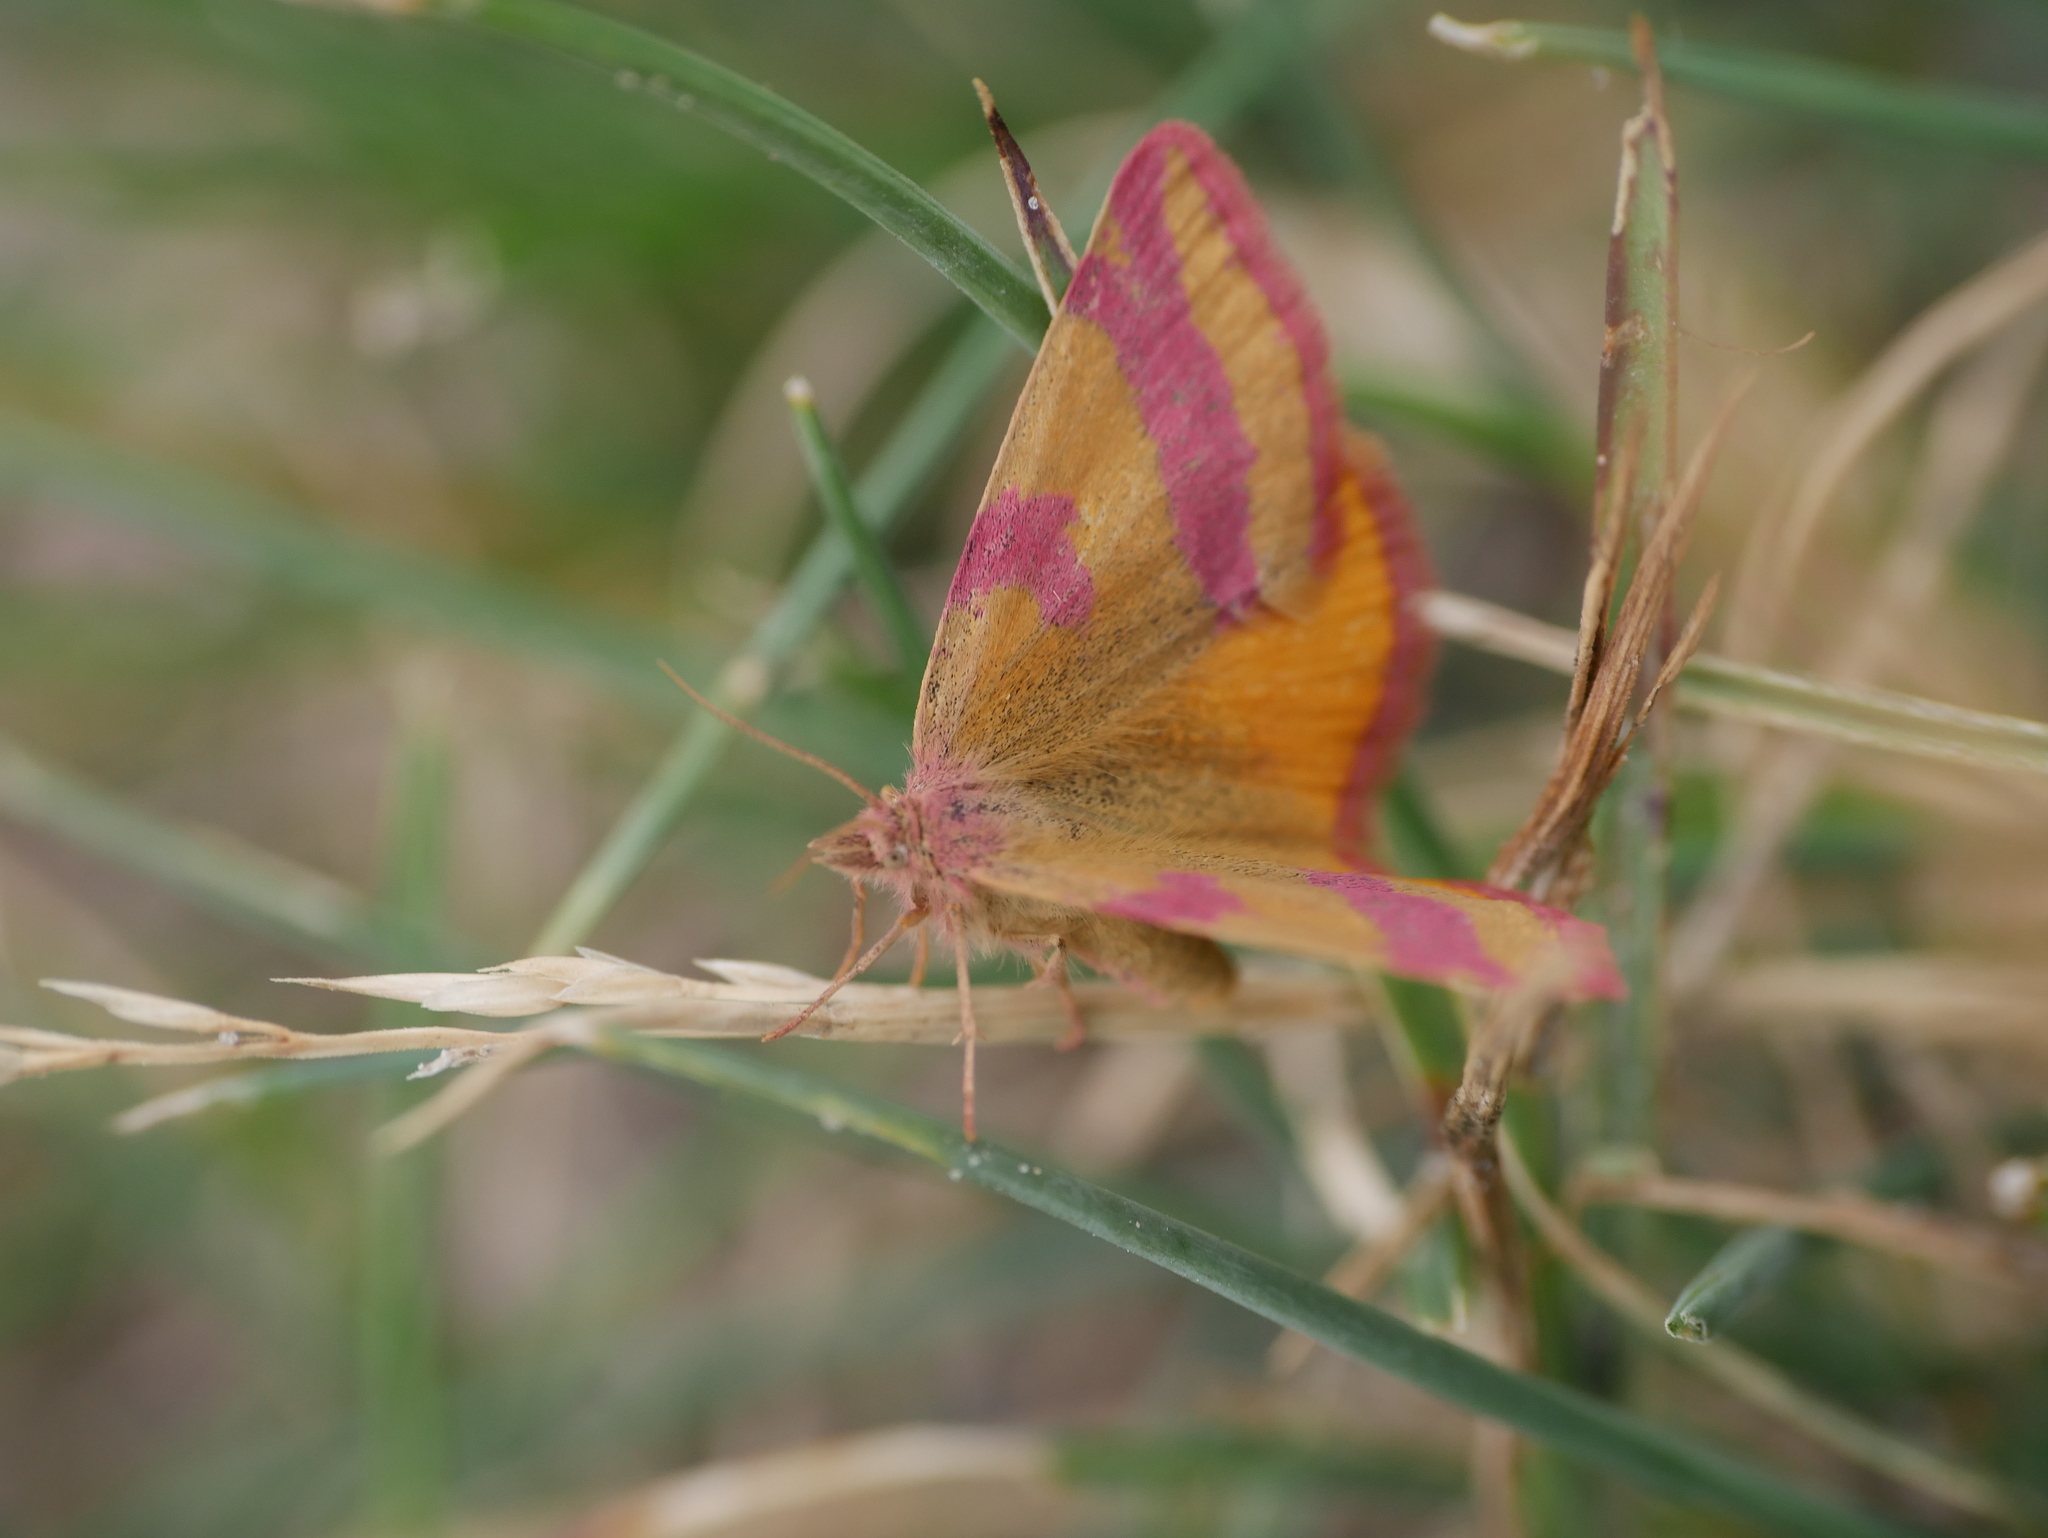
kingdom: Animalia
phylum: Arthropoda
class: Insecta
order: Lepidoptera
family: Geometridae
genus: Lythria
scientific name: Lythria cruentaria
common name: Purple-barred yellow
